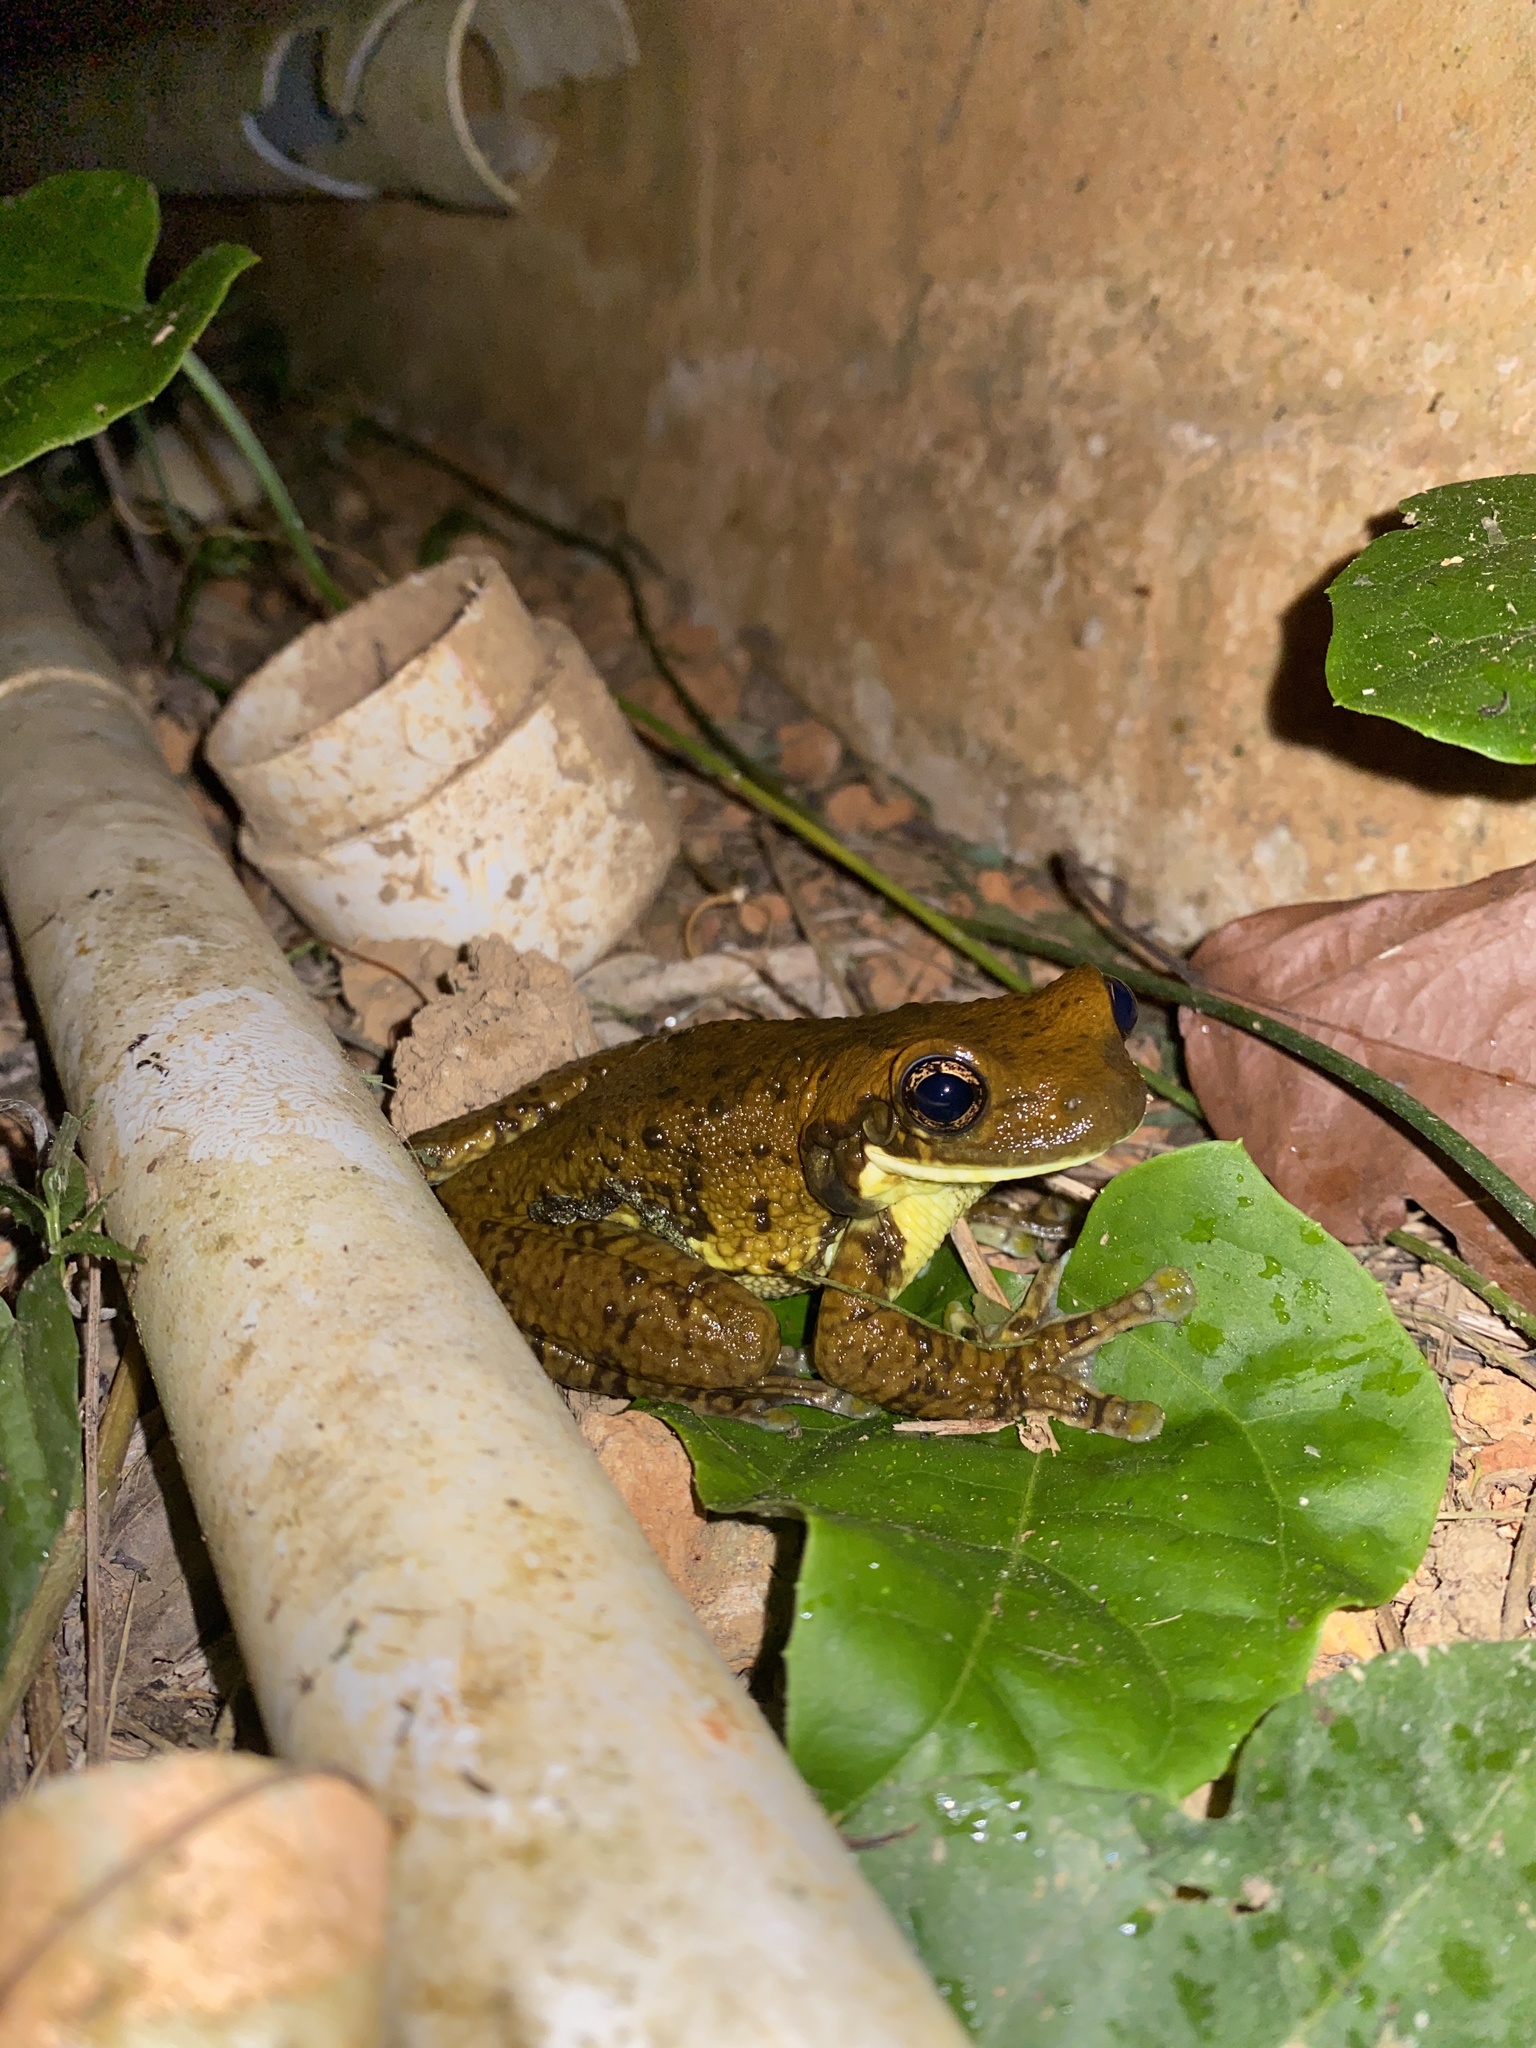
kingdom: Animalia
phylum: Chordata
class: Amphibia
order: Anura
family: Hylidae
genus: Trachycephalus
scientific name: Trachycephalus typhonius
